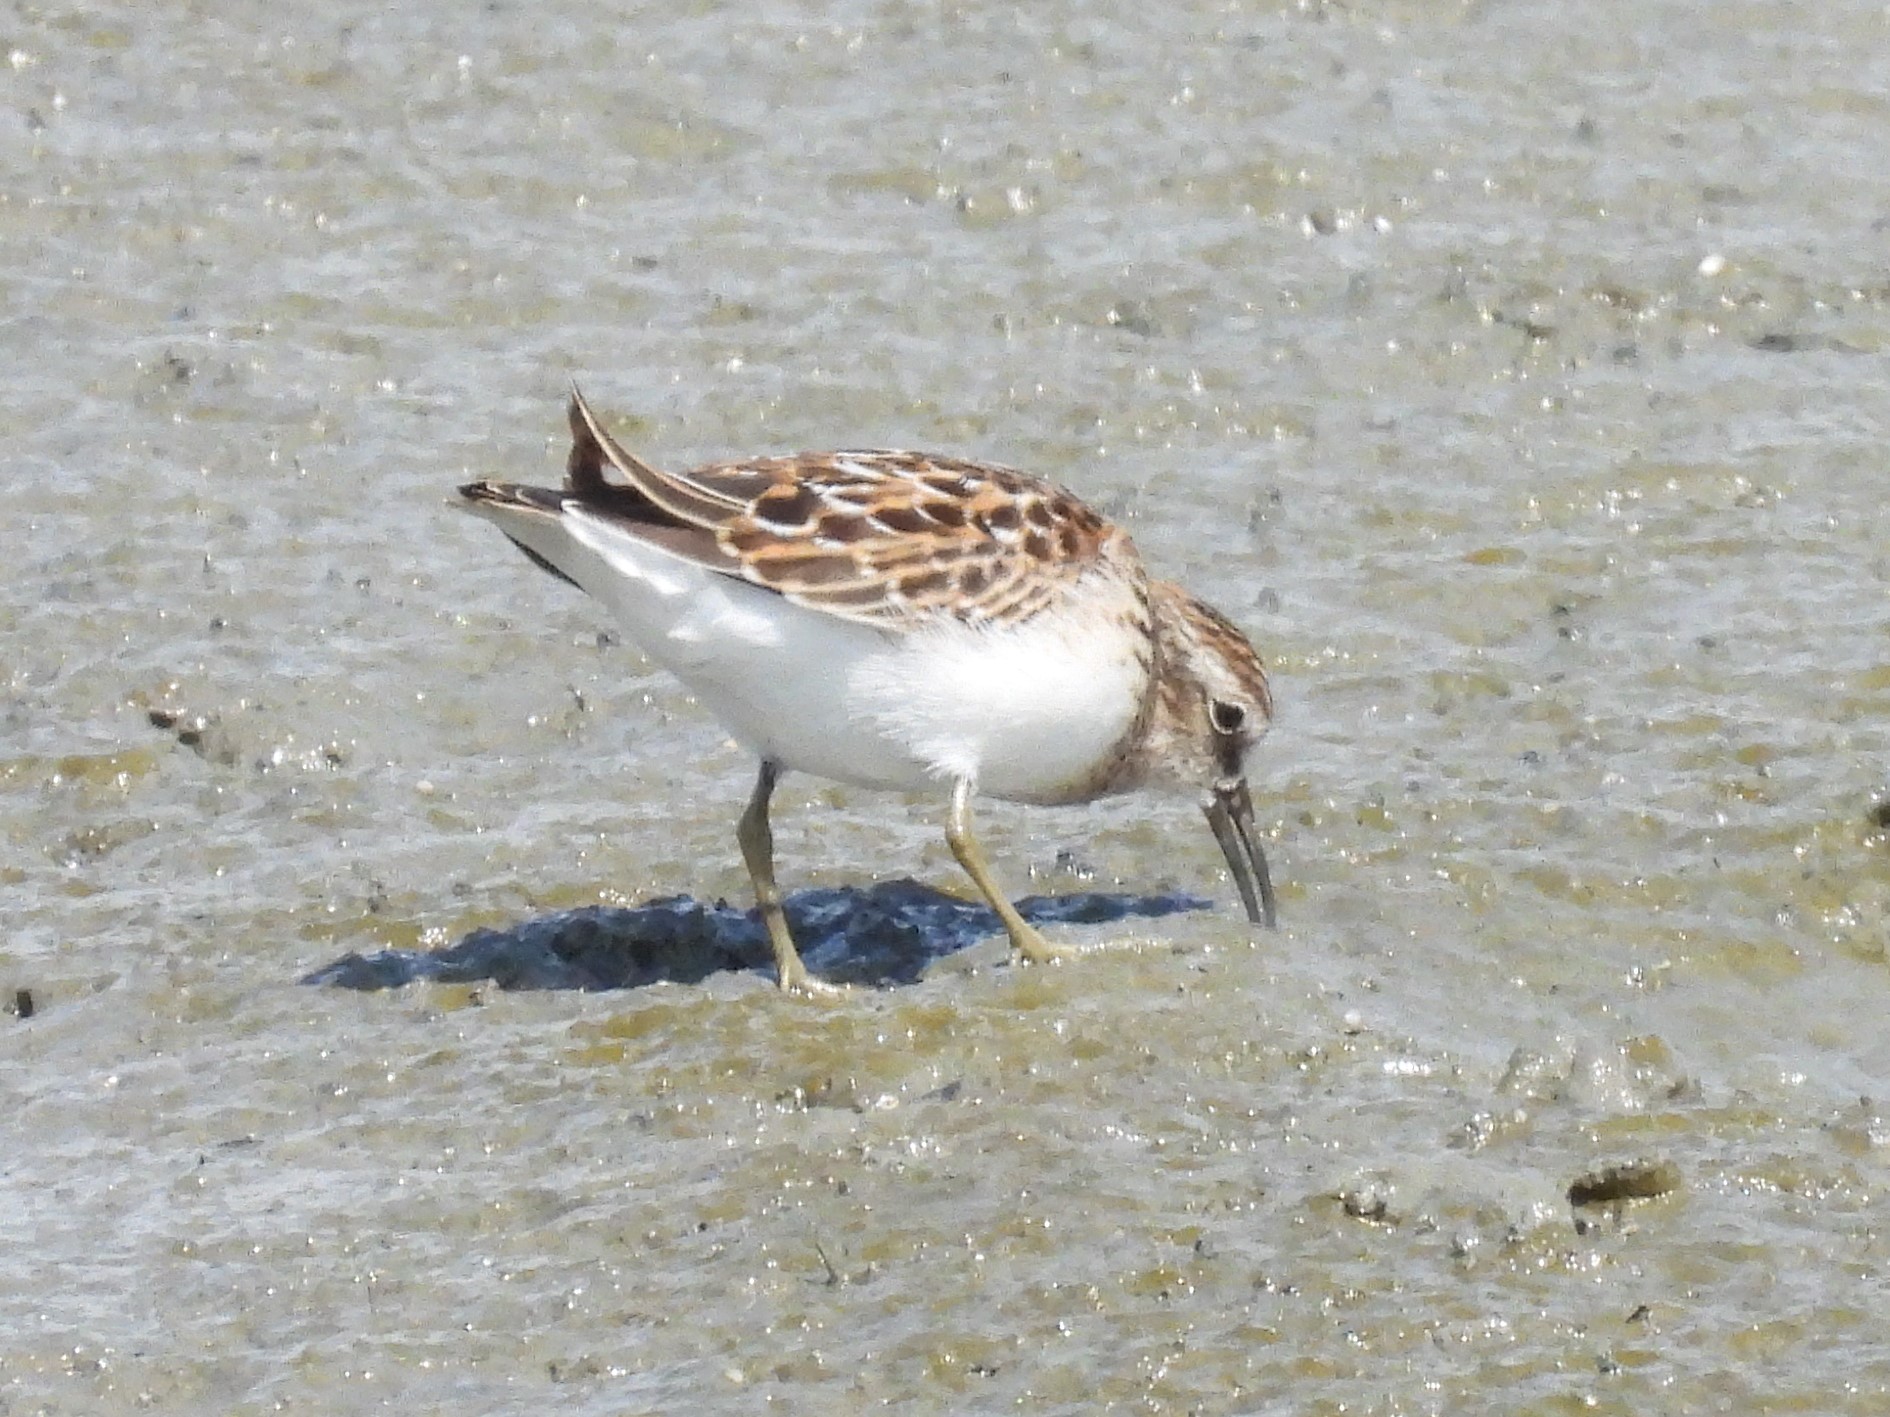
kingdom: Animalia
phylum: Chordata
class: Aves
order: Charadriiformes
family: Scolopacidae
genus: Calidris
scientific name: Calidris minutilla
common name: Least sandpiper
